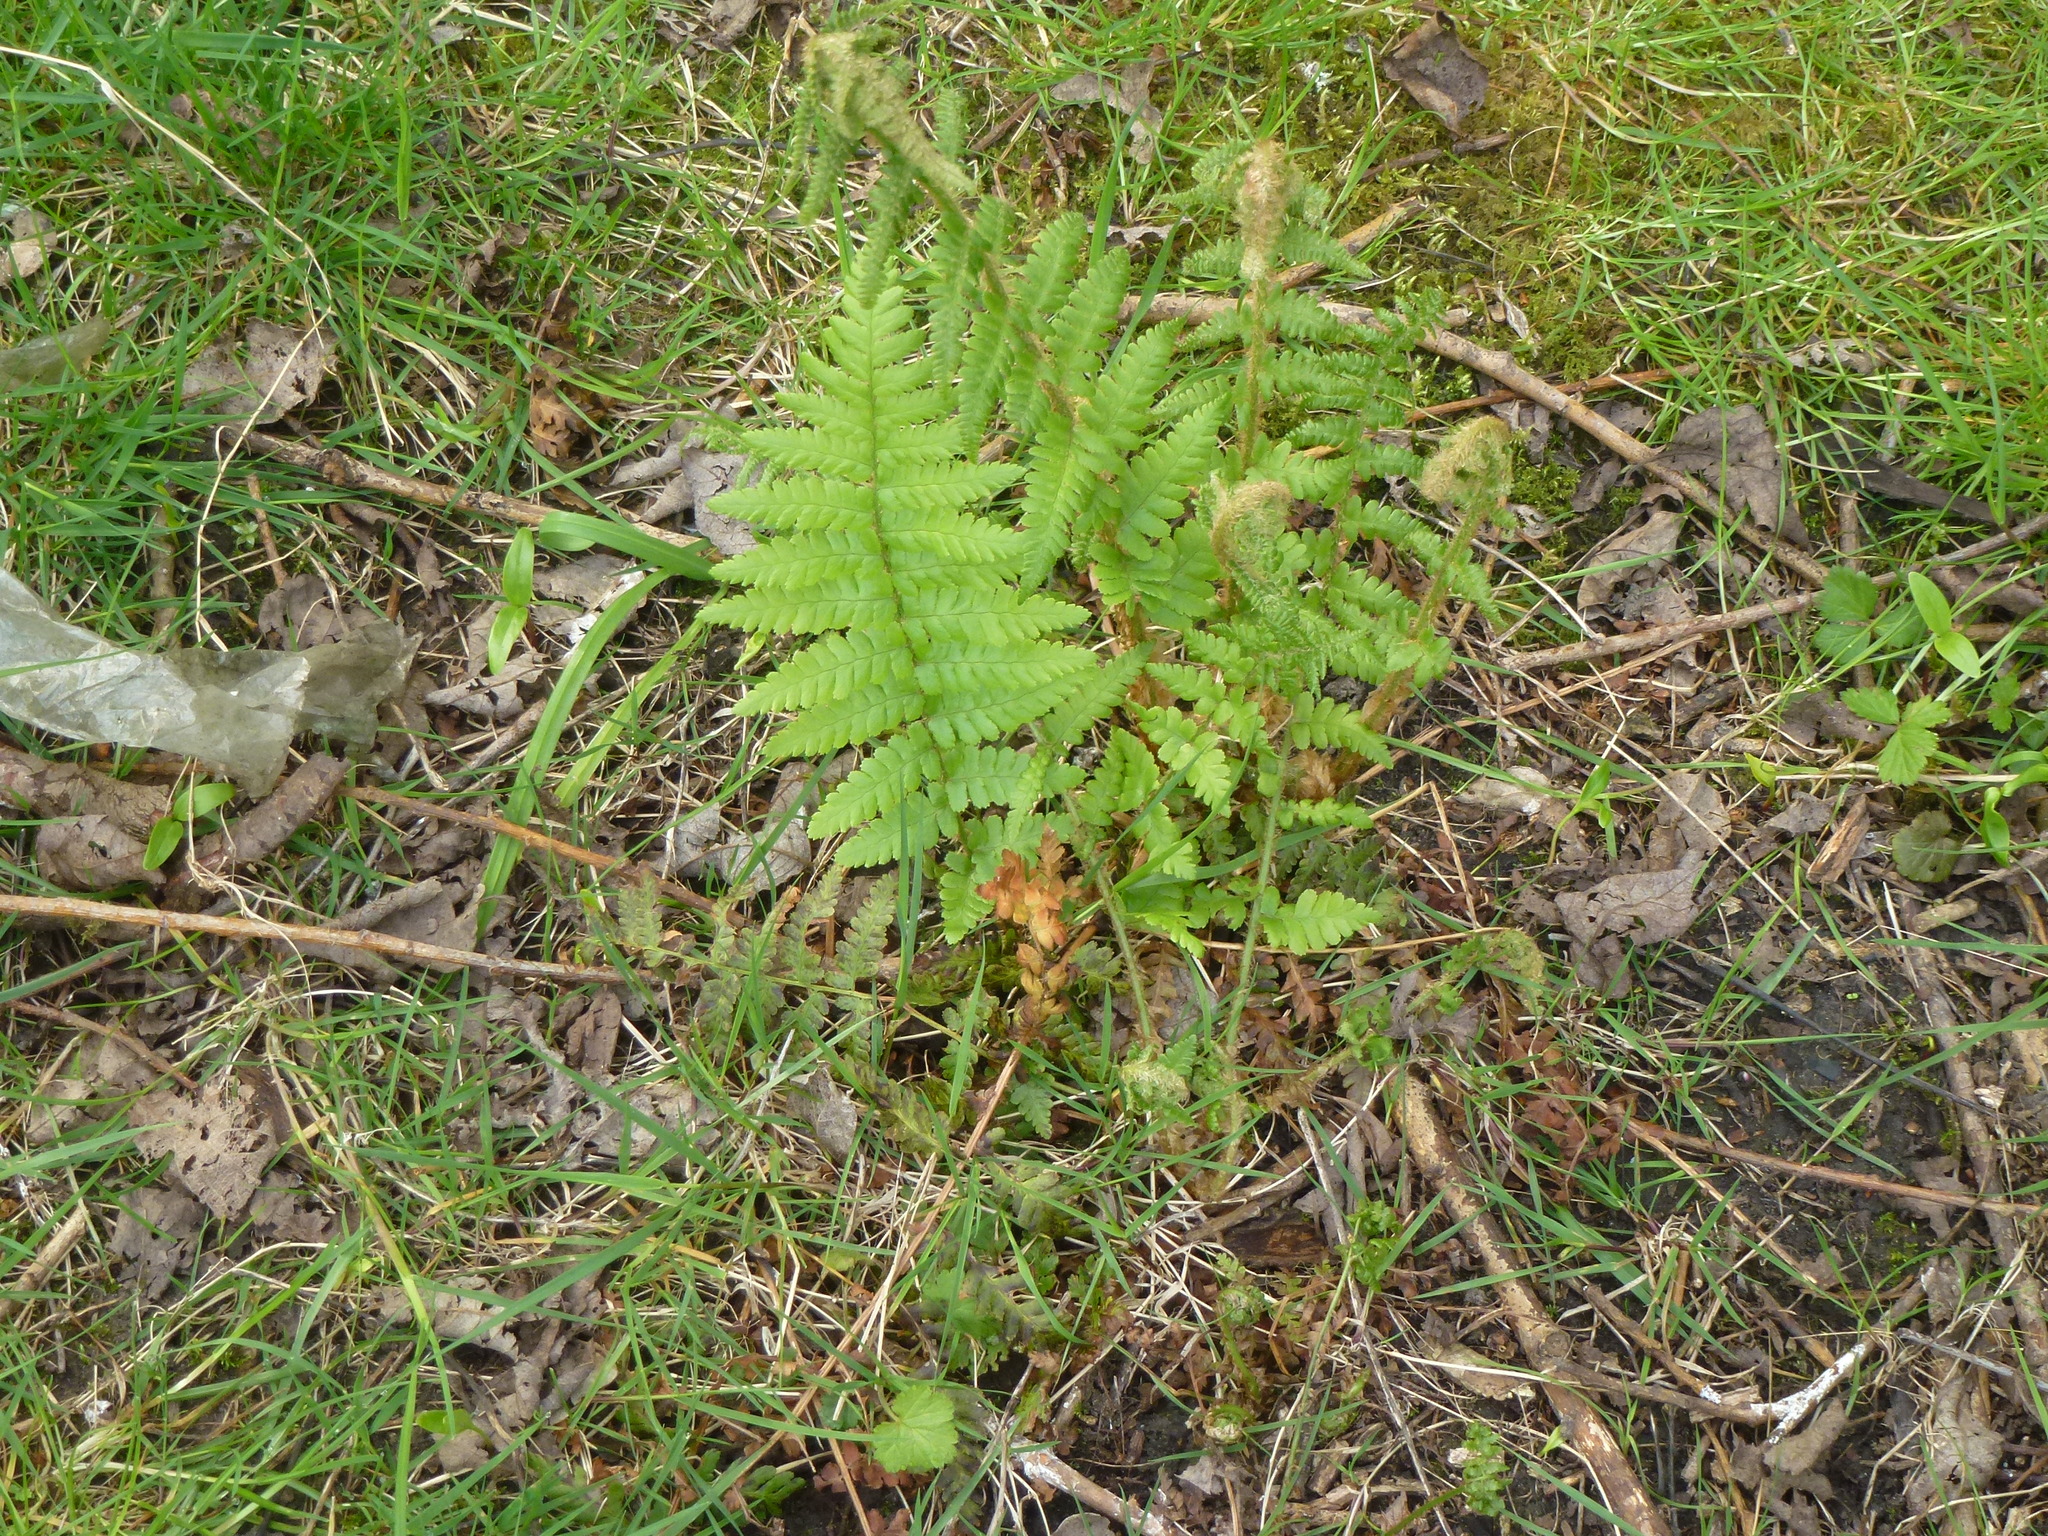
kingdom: Plantae
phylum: Tracheophyta
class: Polypodiopsida
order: Polypodiales
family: Dryopteridaceae
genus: Dryopteris
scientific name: Dryopteris filix-mas
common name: Male fern
